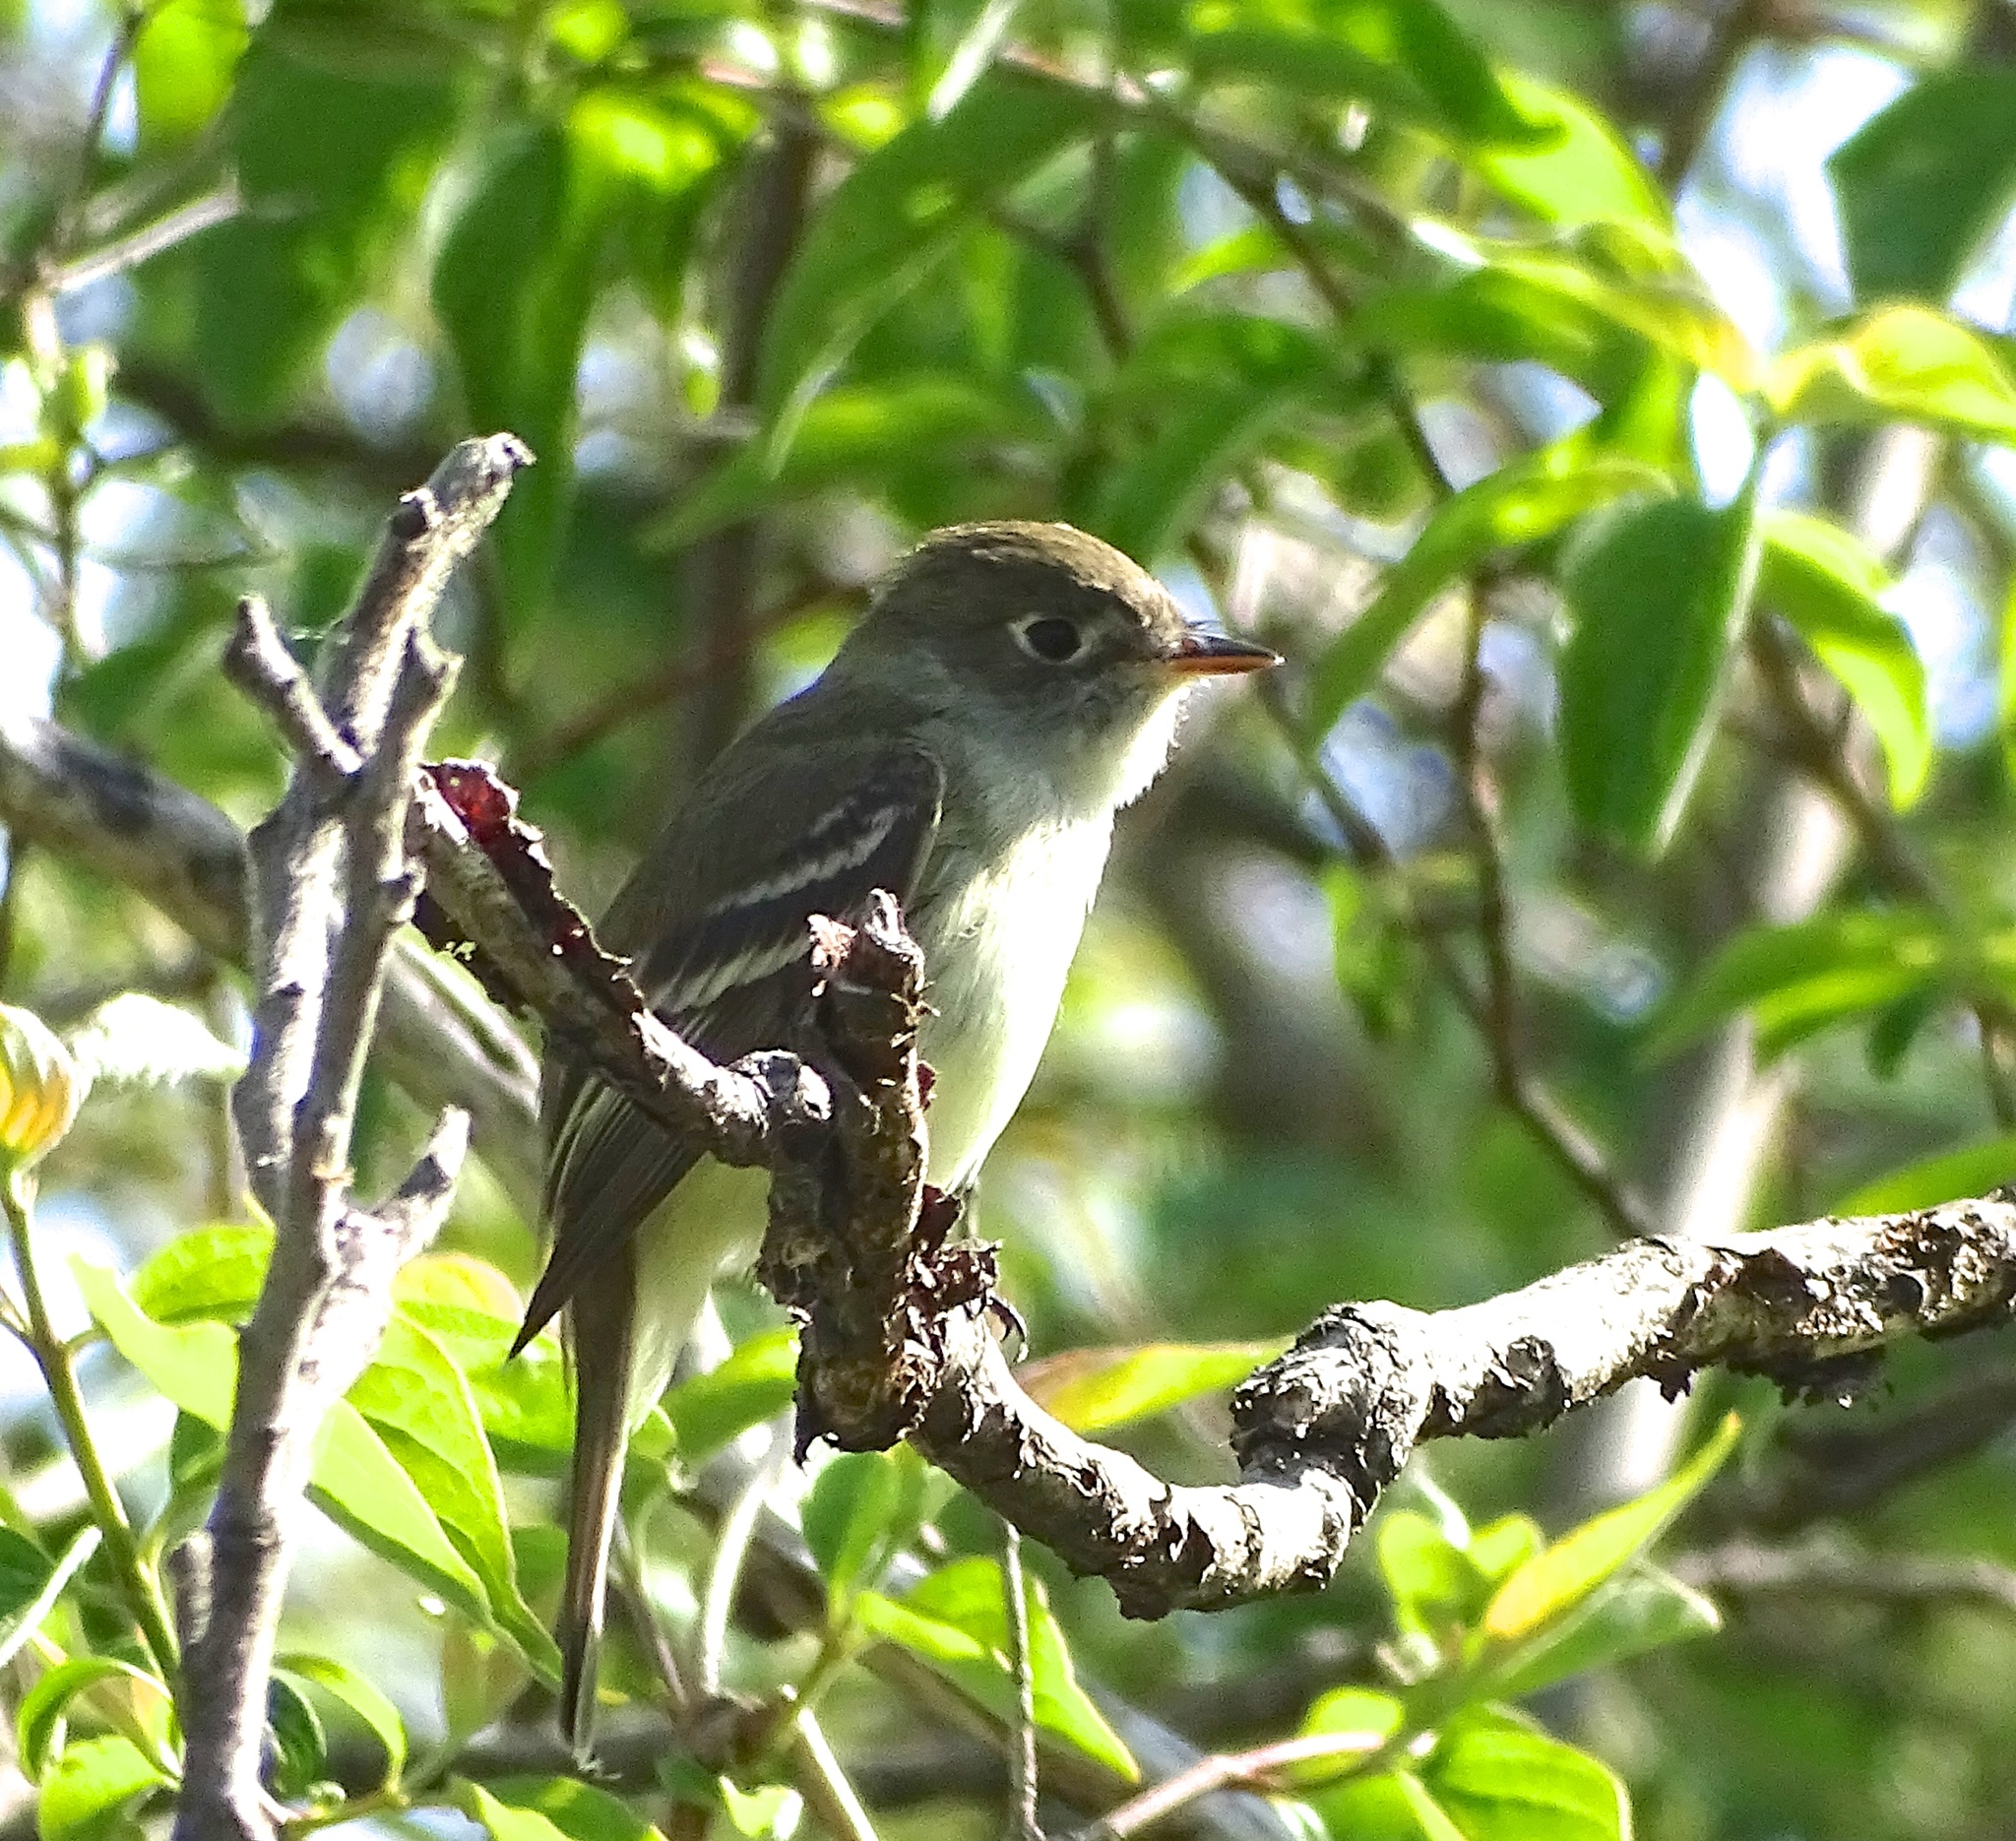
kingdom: Animalia
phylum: Chordata
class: Aves
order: Passeriformes
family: Tyrannidae
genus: Empidonax
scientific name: Empidonax minimus
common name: Least flycatcher
